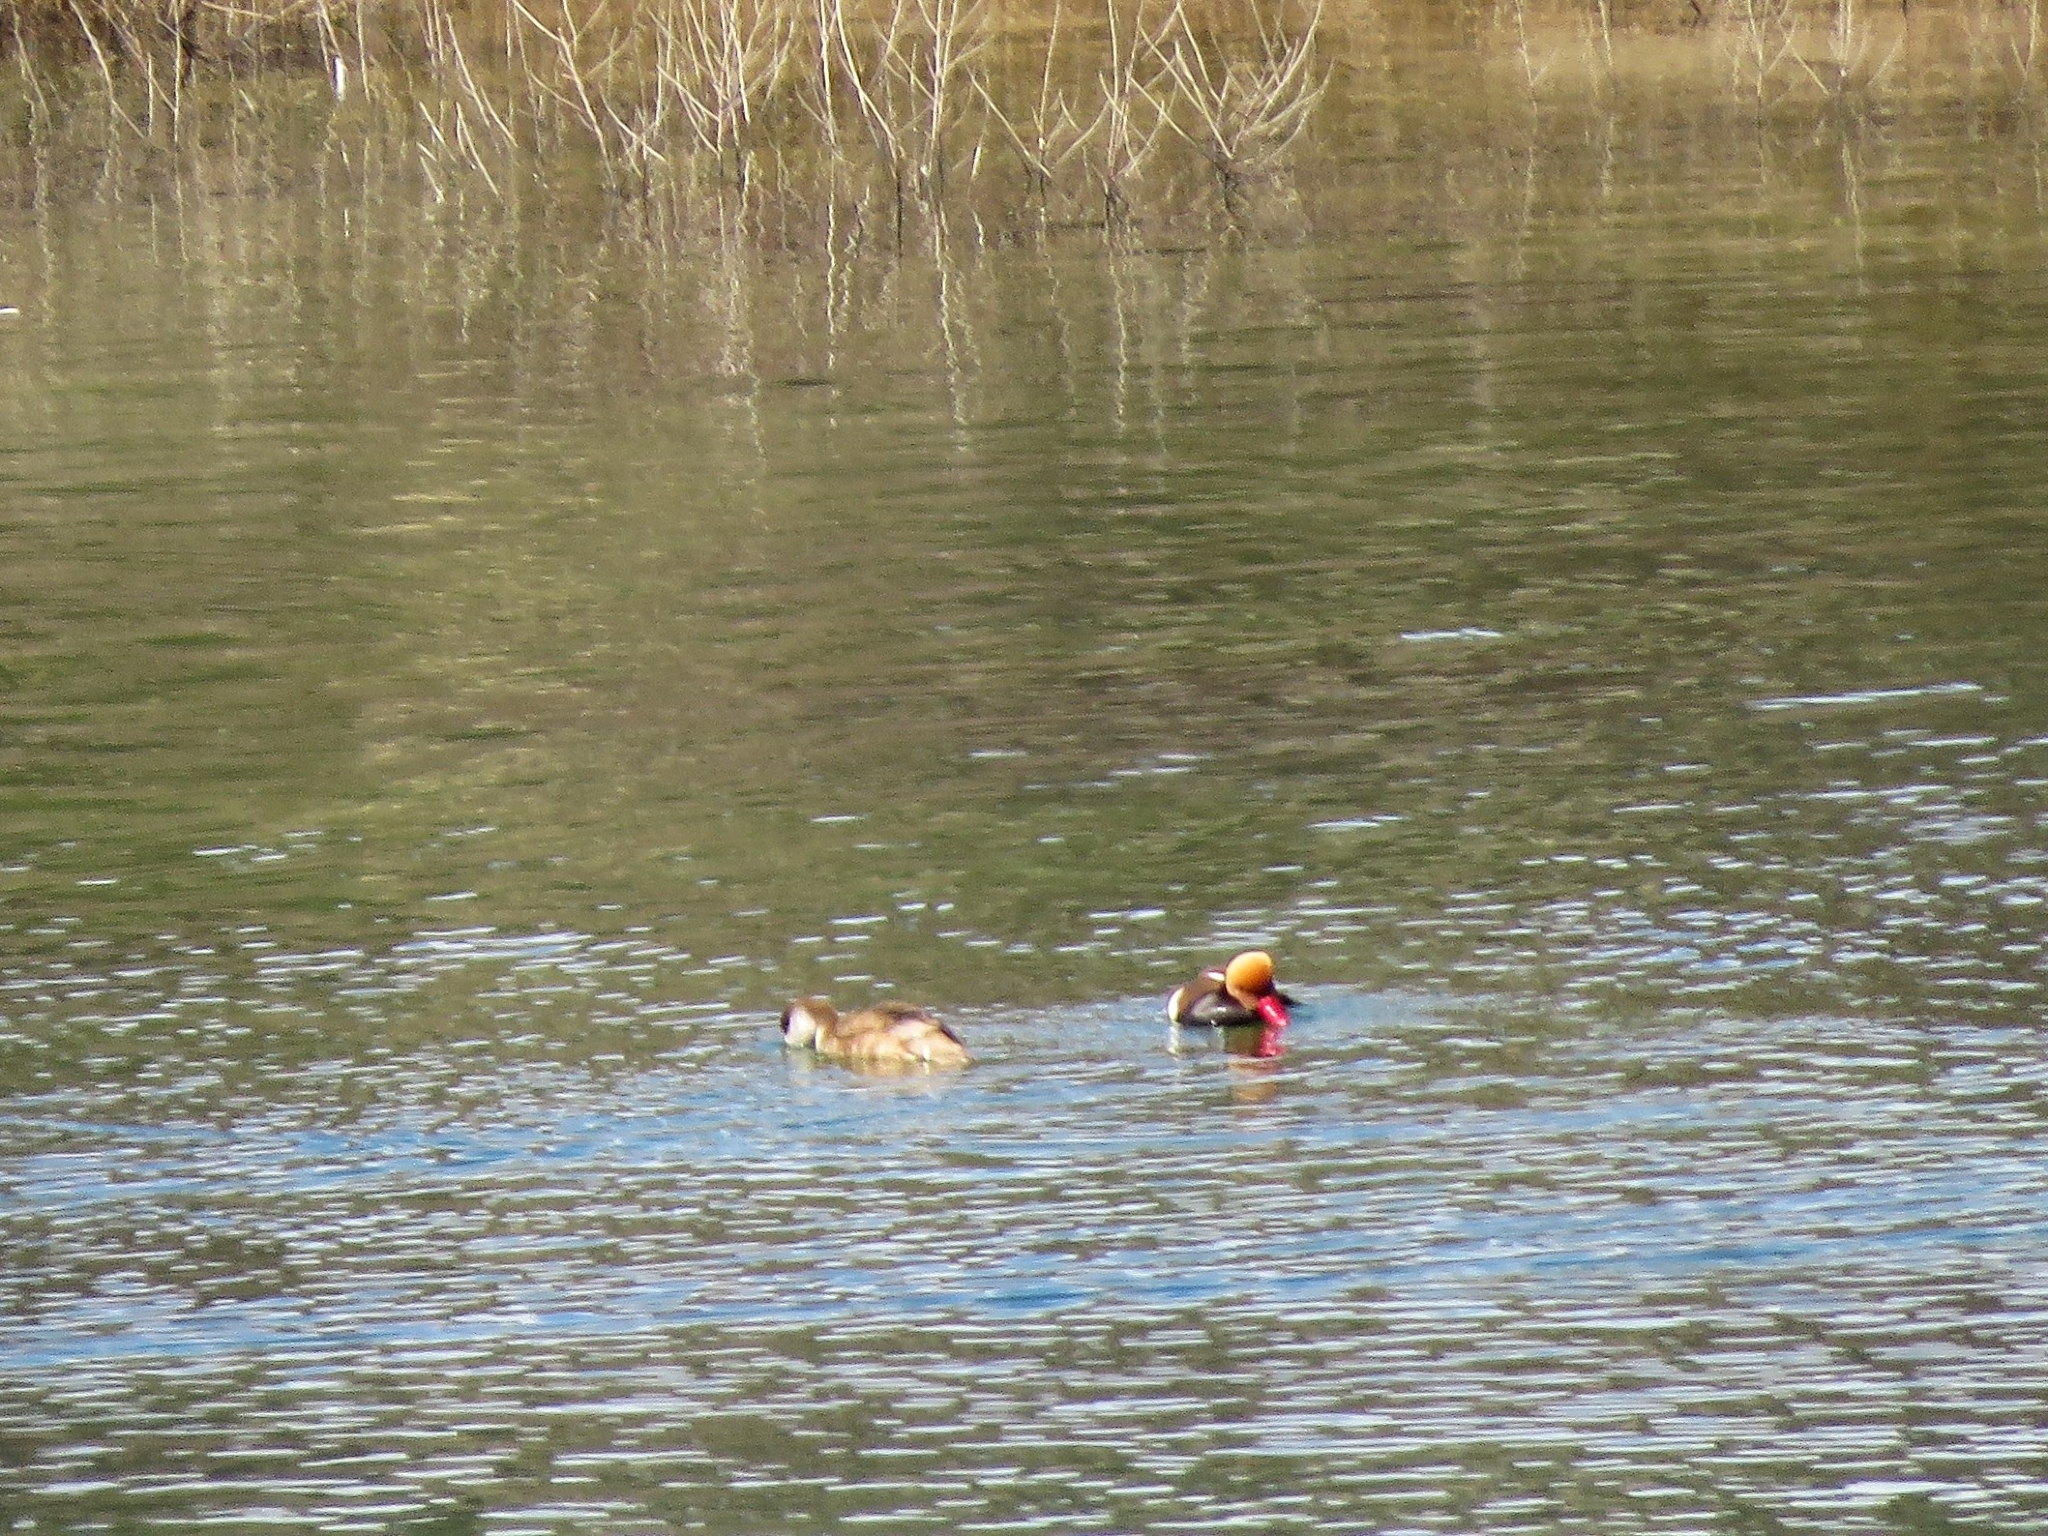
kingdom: Animalia
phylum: Chordata
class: Aves
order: Anseriformes
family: Anatidae
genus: Netta
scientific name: Netta rufina
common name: Red-crested pochard
